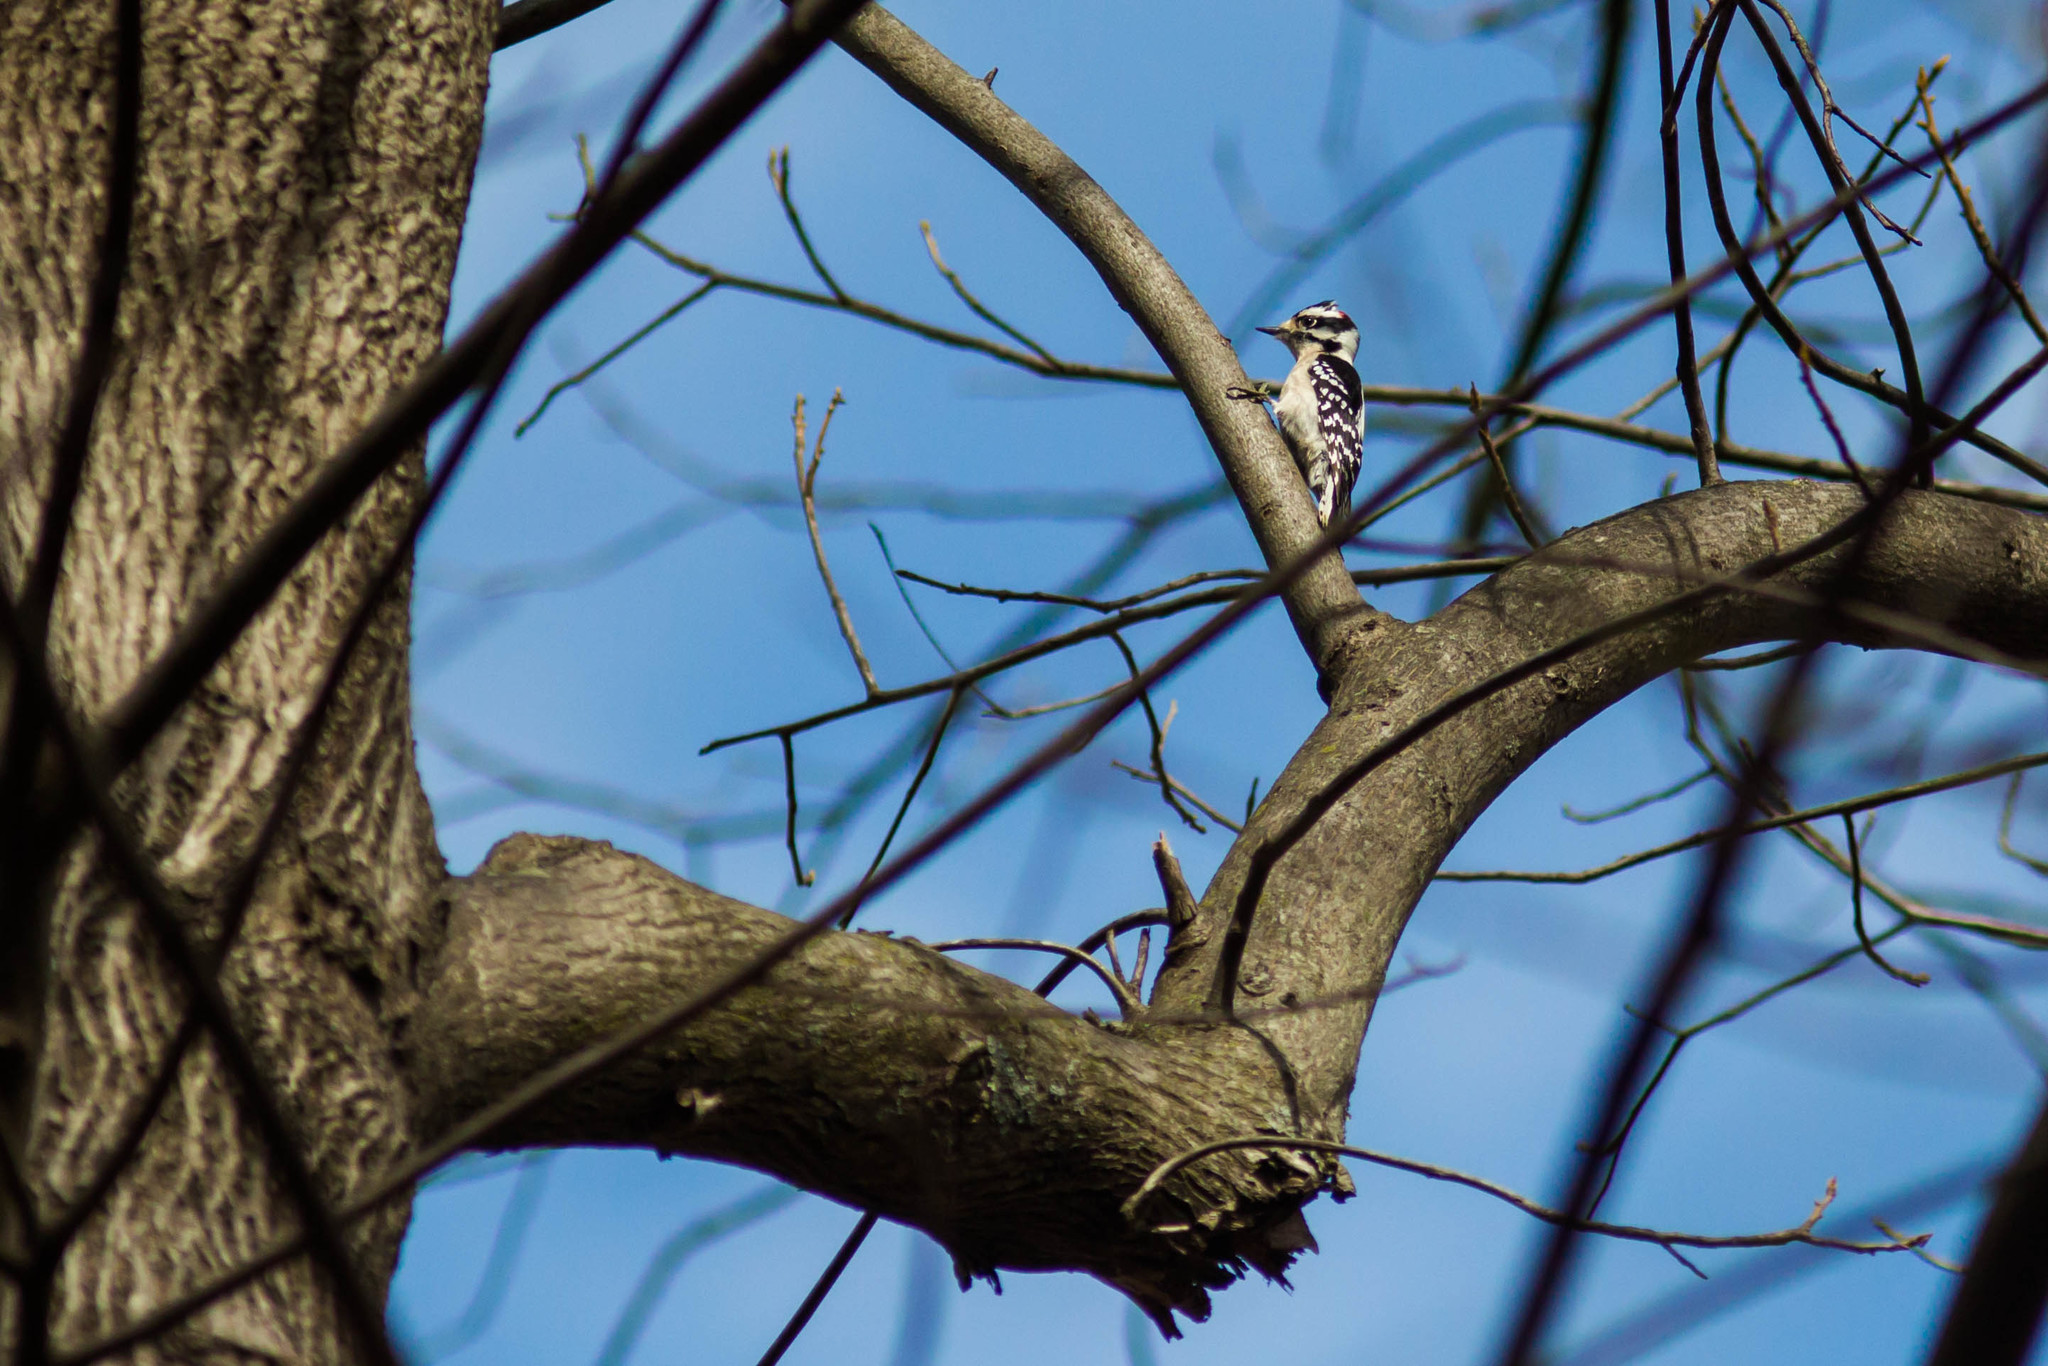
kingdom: Animalia
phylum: Chordata
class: Aves
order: Piciformes
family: Picidae
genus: Dryobates
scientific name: Dryobates pubescens
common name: Downy woodpecker
